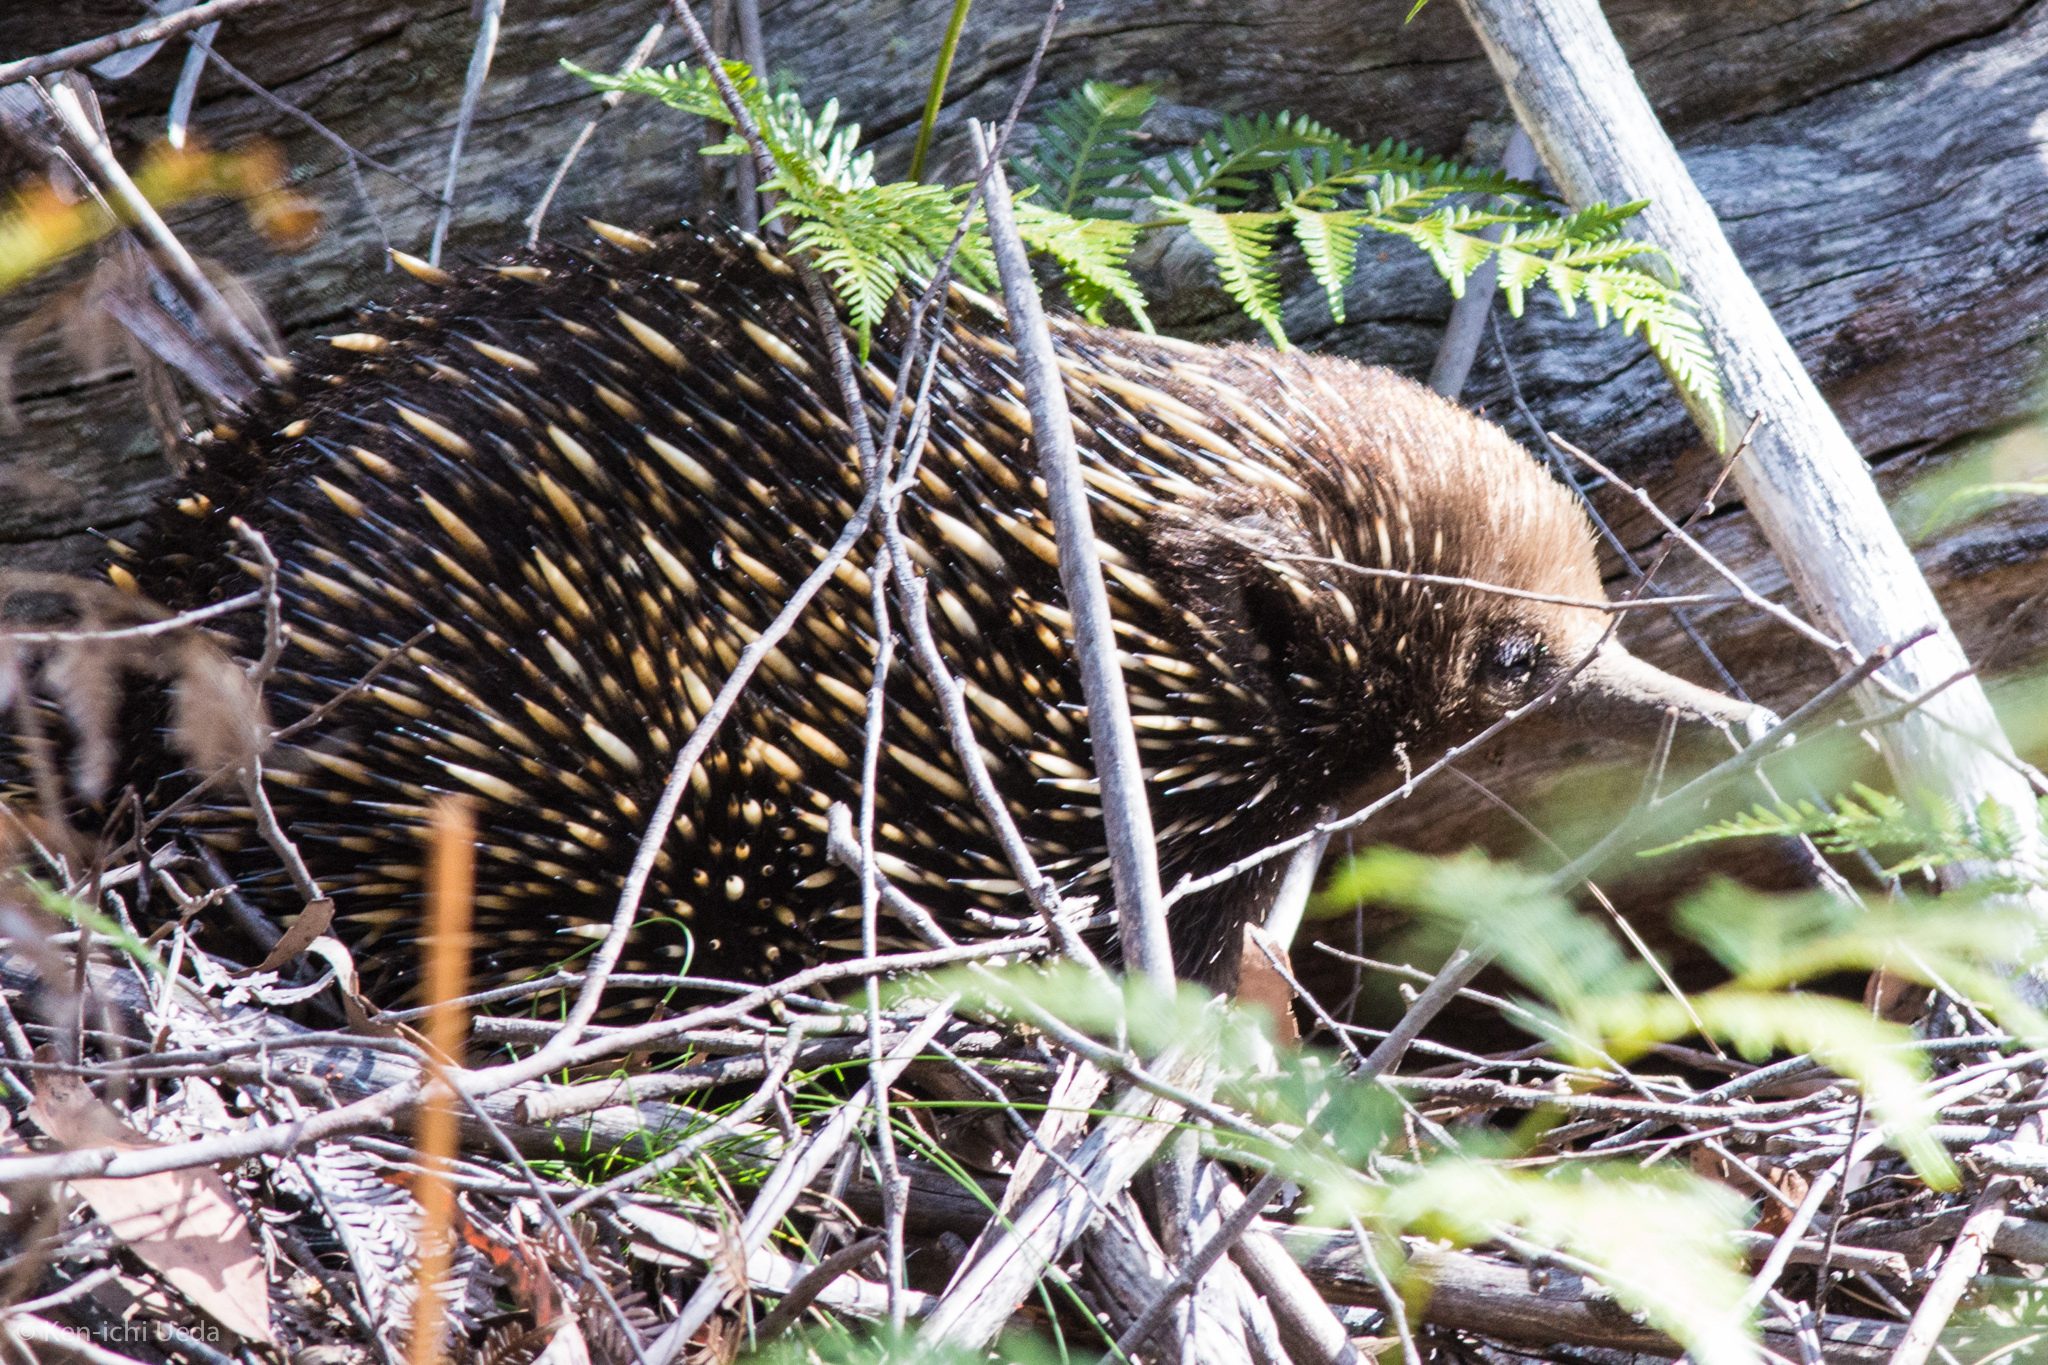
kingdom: Animalia
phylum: Chordata
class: Mammalia
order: Monotremata
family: Tachyglossidae
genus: Tachyglossus
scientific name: Tachyglossus aculeatus
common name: Short-beaked echidna
